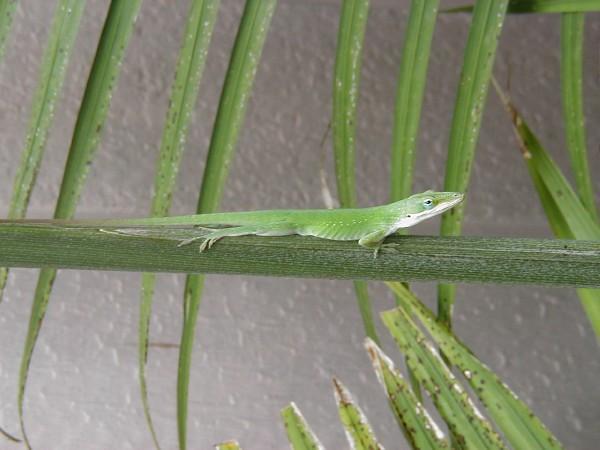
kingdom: Animalia
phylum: Chordata
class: Squamata
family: Dactyloidae
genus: Anolis
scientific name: Anolis carolinensis
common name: Green anole
